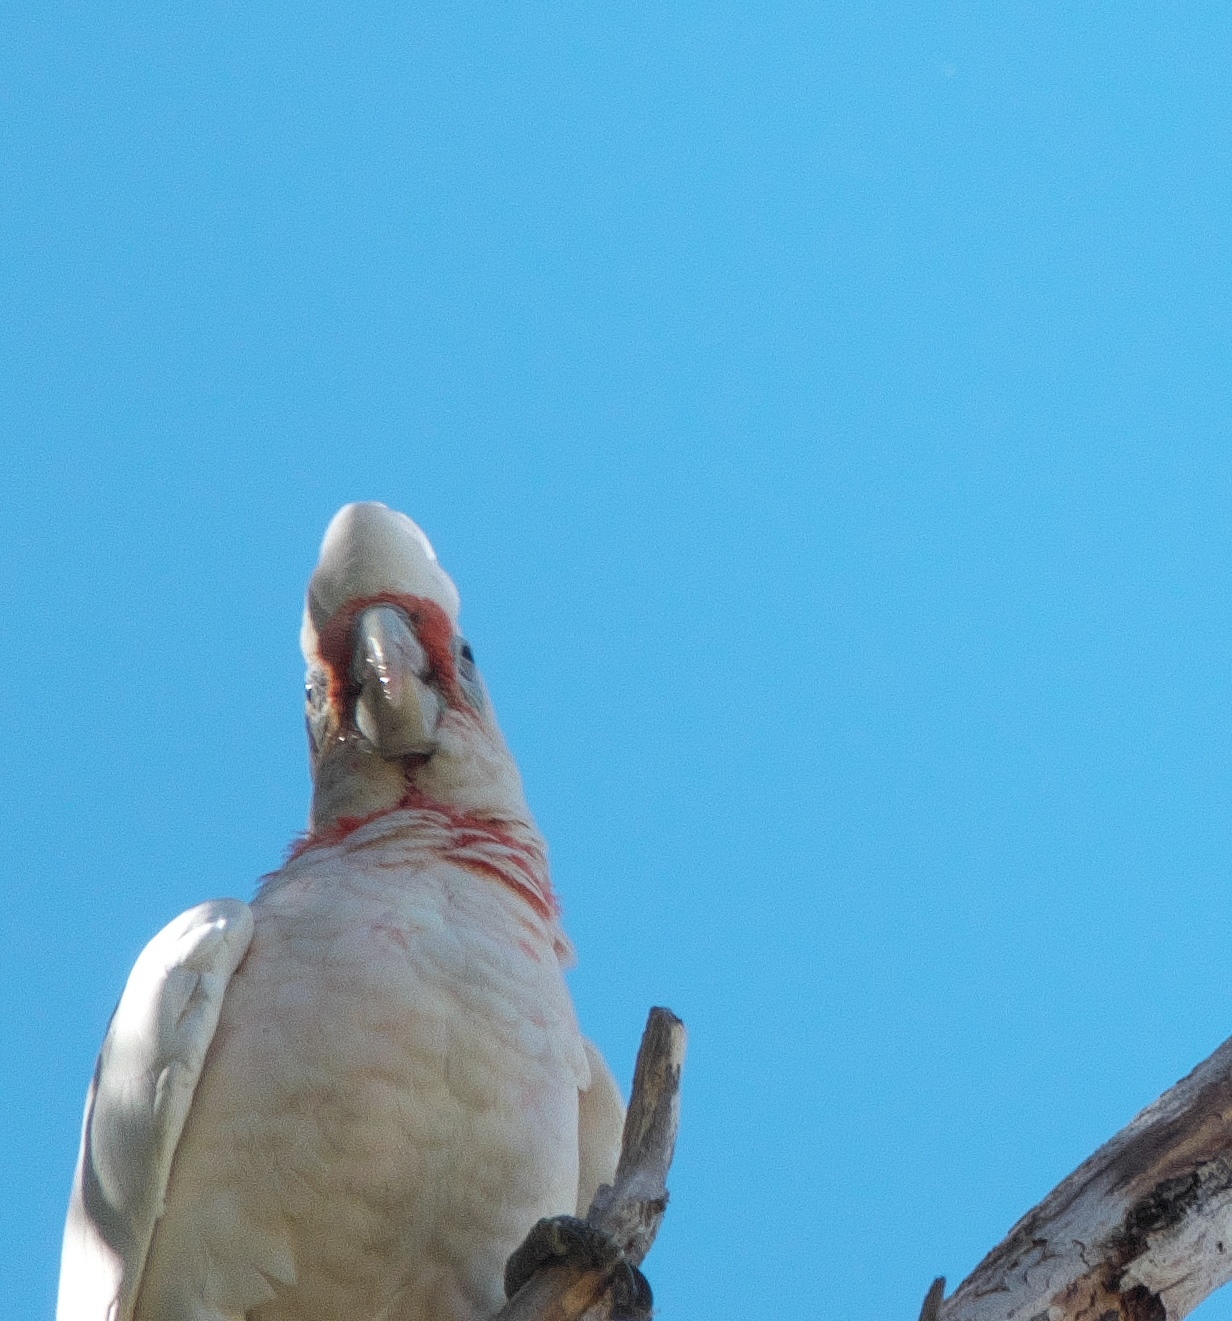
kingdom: Animalia
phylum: Chordata
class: Aves
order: Psittaciformes
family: Psittacidae
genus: Cacatua
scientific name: Cacatua tenuirostris
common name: Long-billed corella
